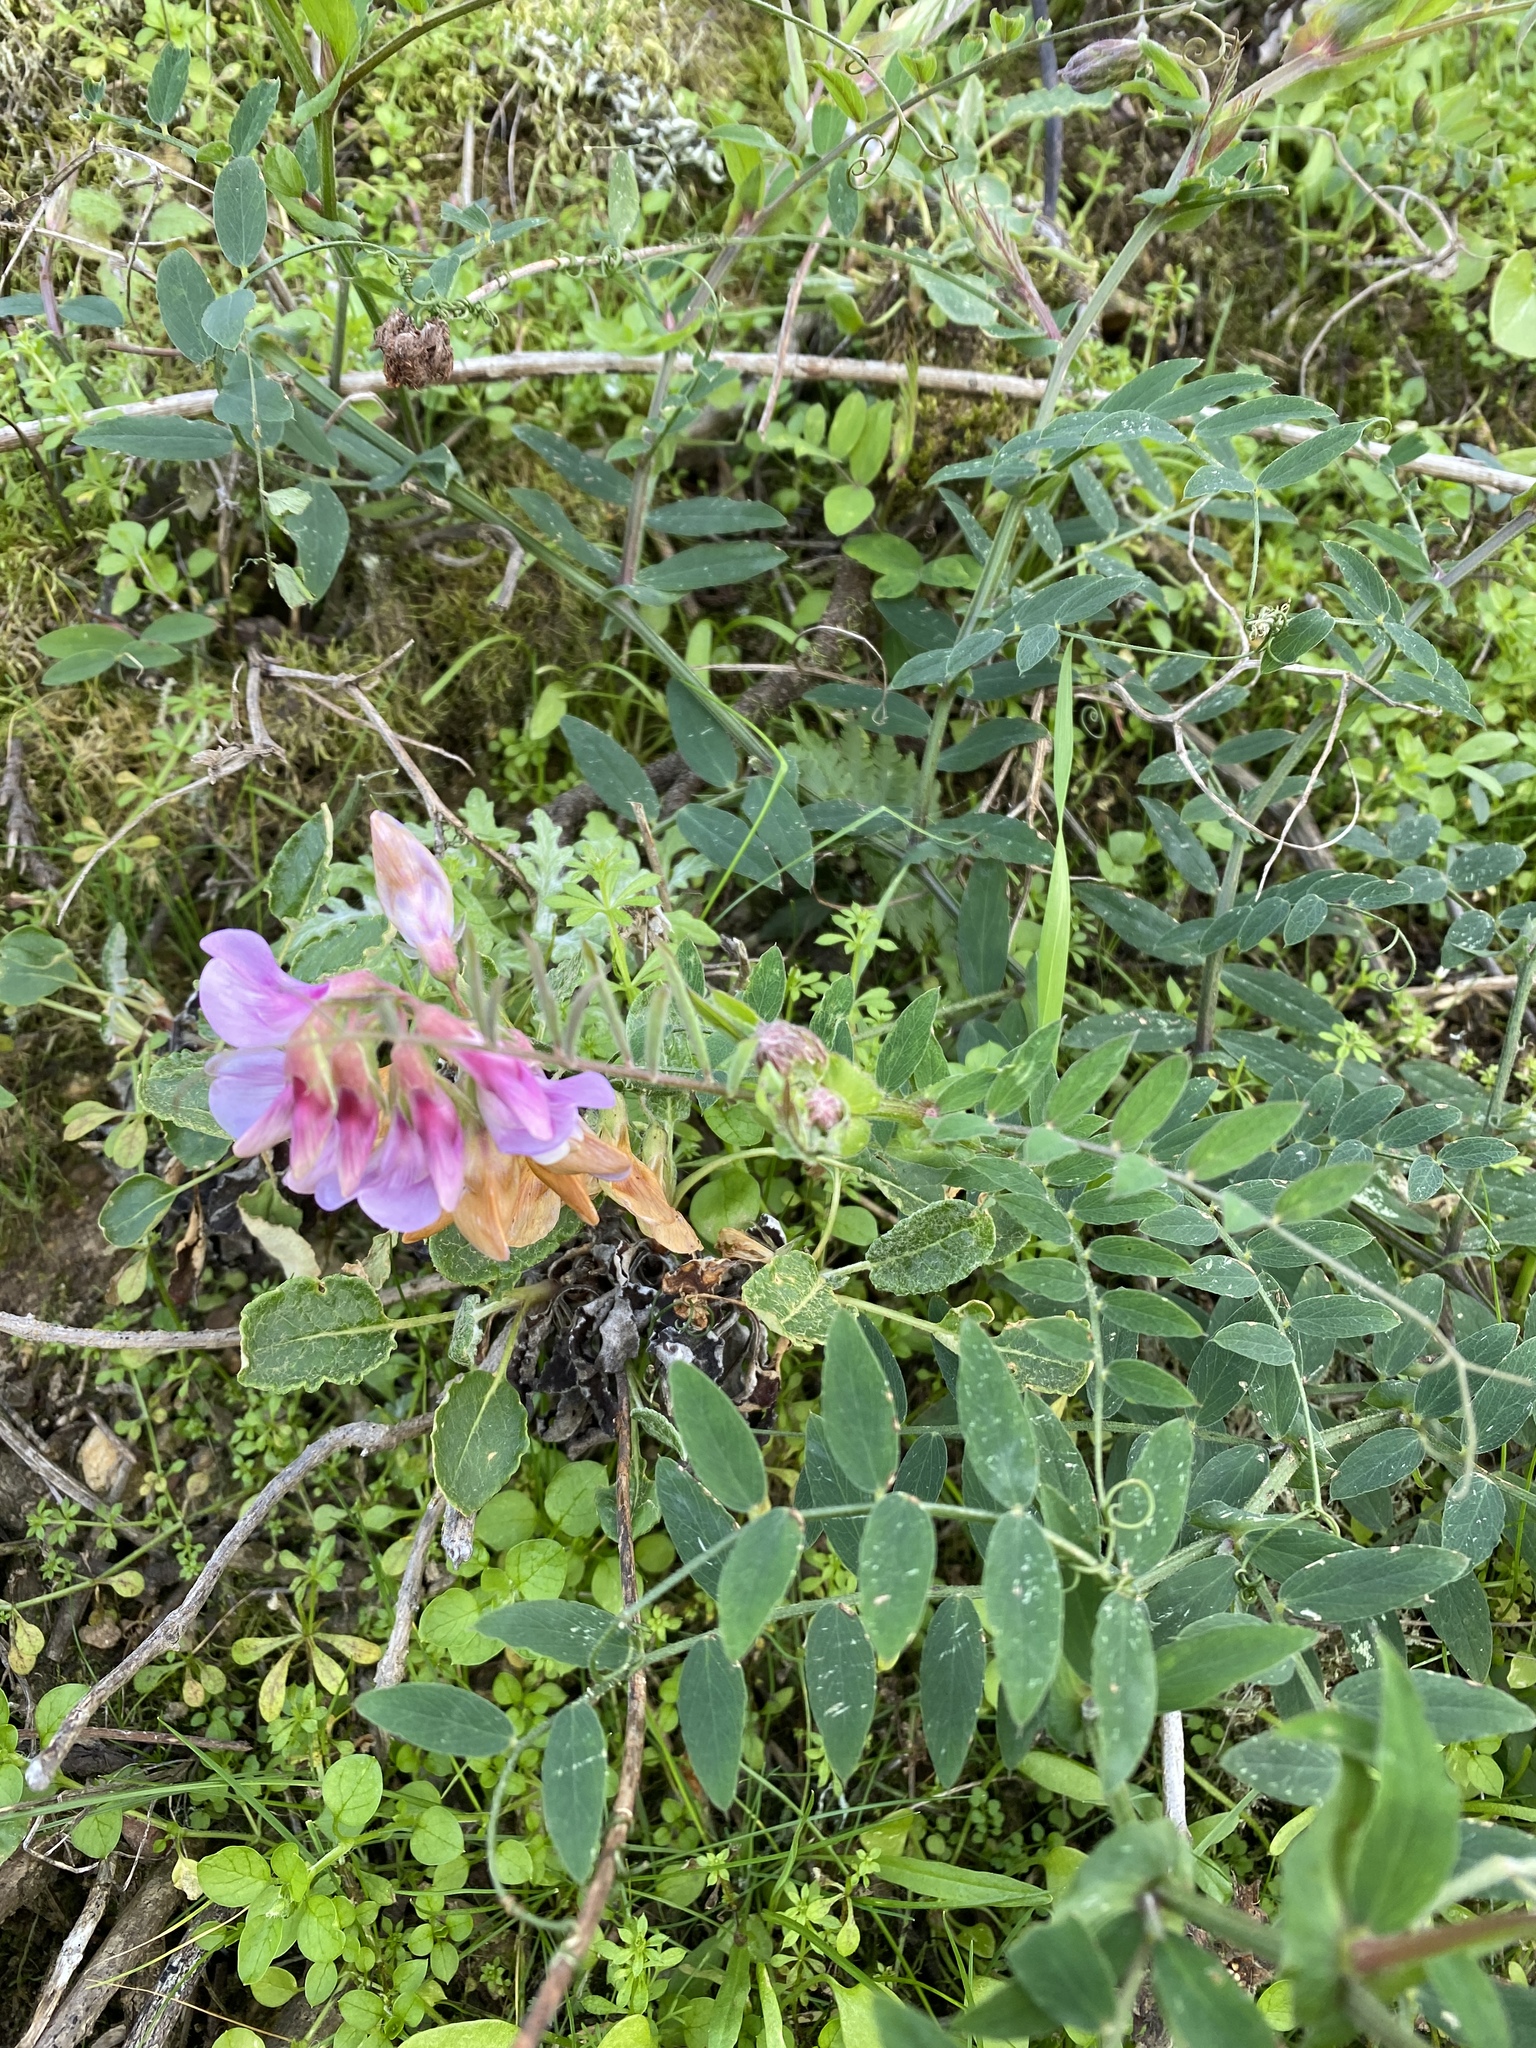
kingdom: Plantae
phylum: Tracheophyta
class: Magnoliopsida
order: Fabales
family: Fabaceae
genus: Lathyrus
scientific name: Lathyrus vestitus
